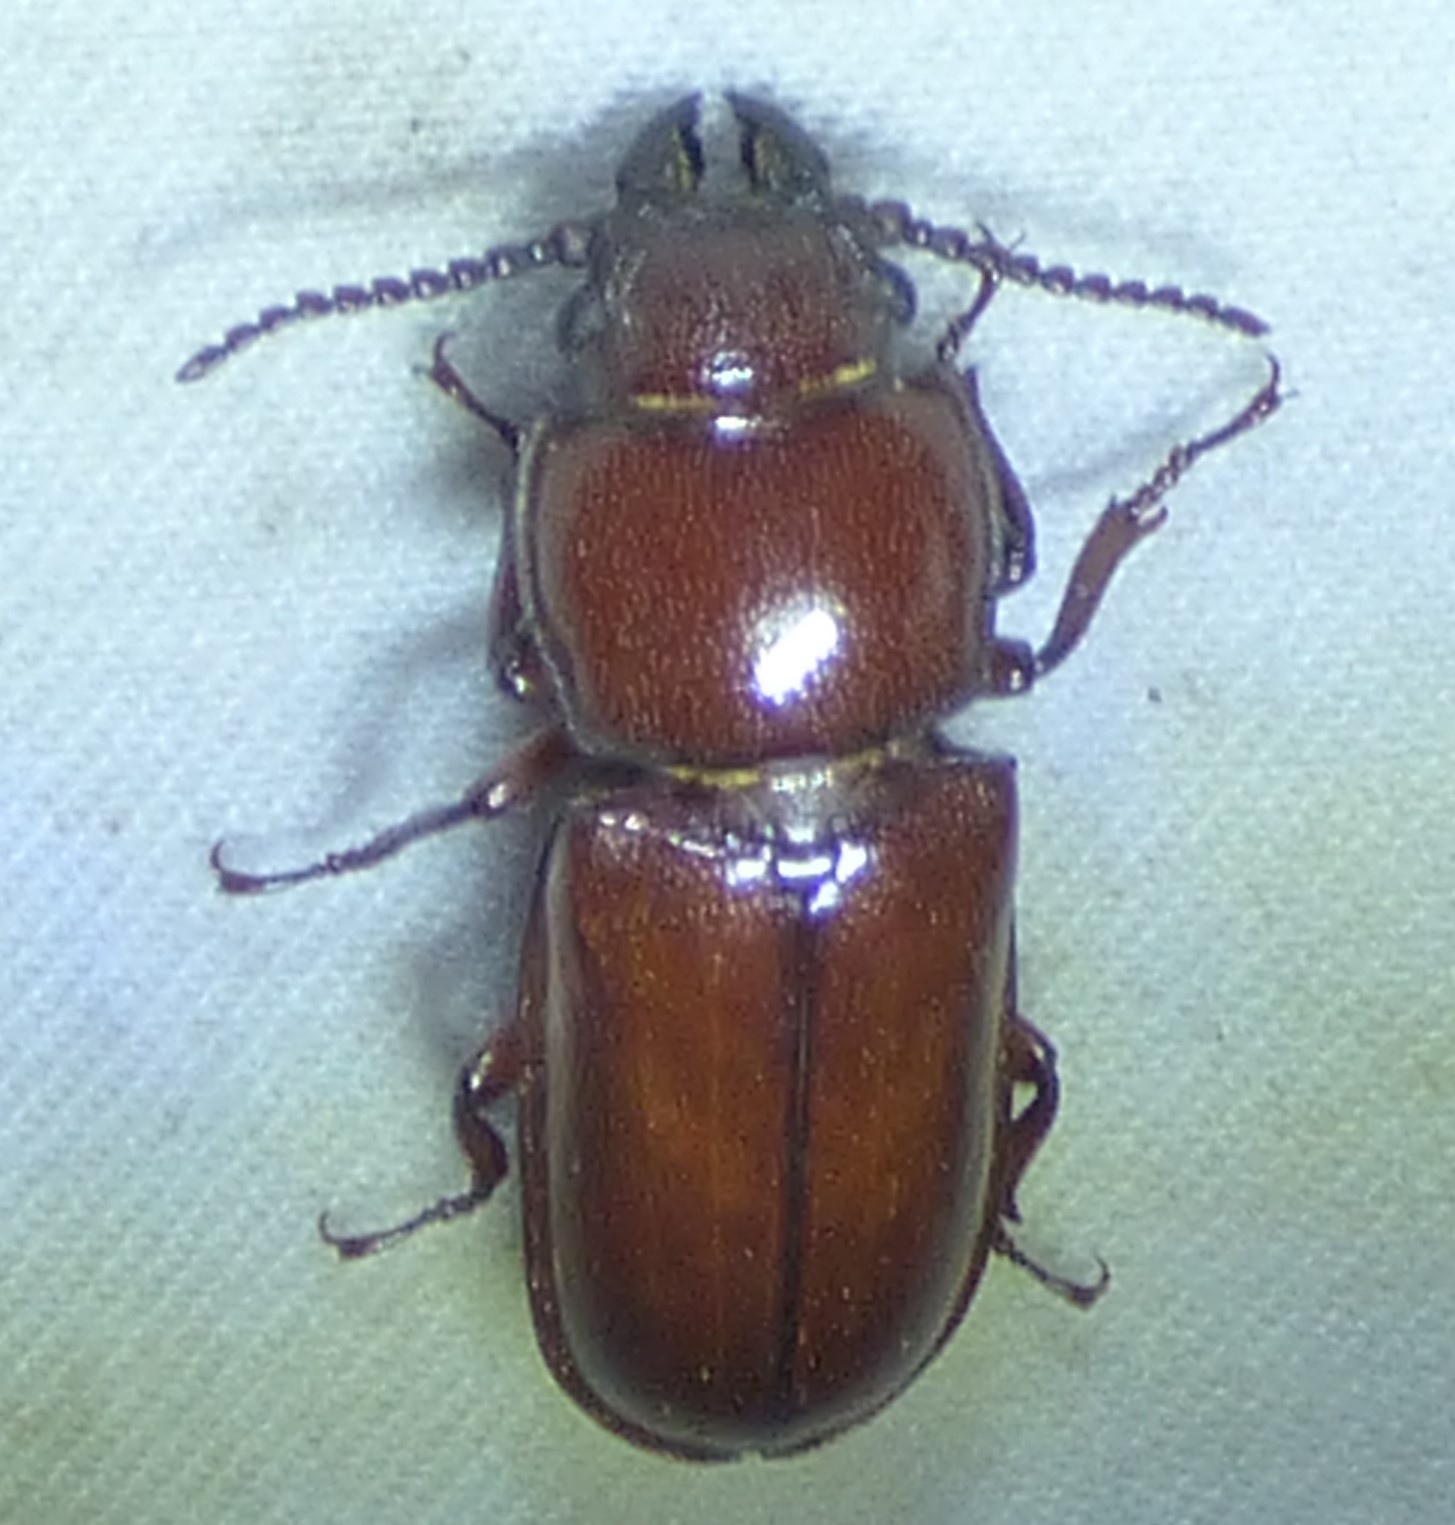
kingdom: Animalia
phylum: Arthropoda
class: Insecta
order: Coleoptera
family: Cerambycidae
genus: Neandra
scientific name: Neandra brunnea
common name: Pole borer
